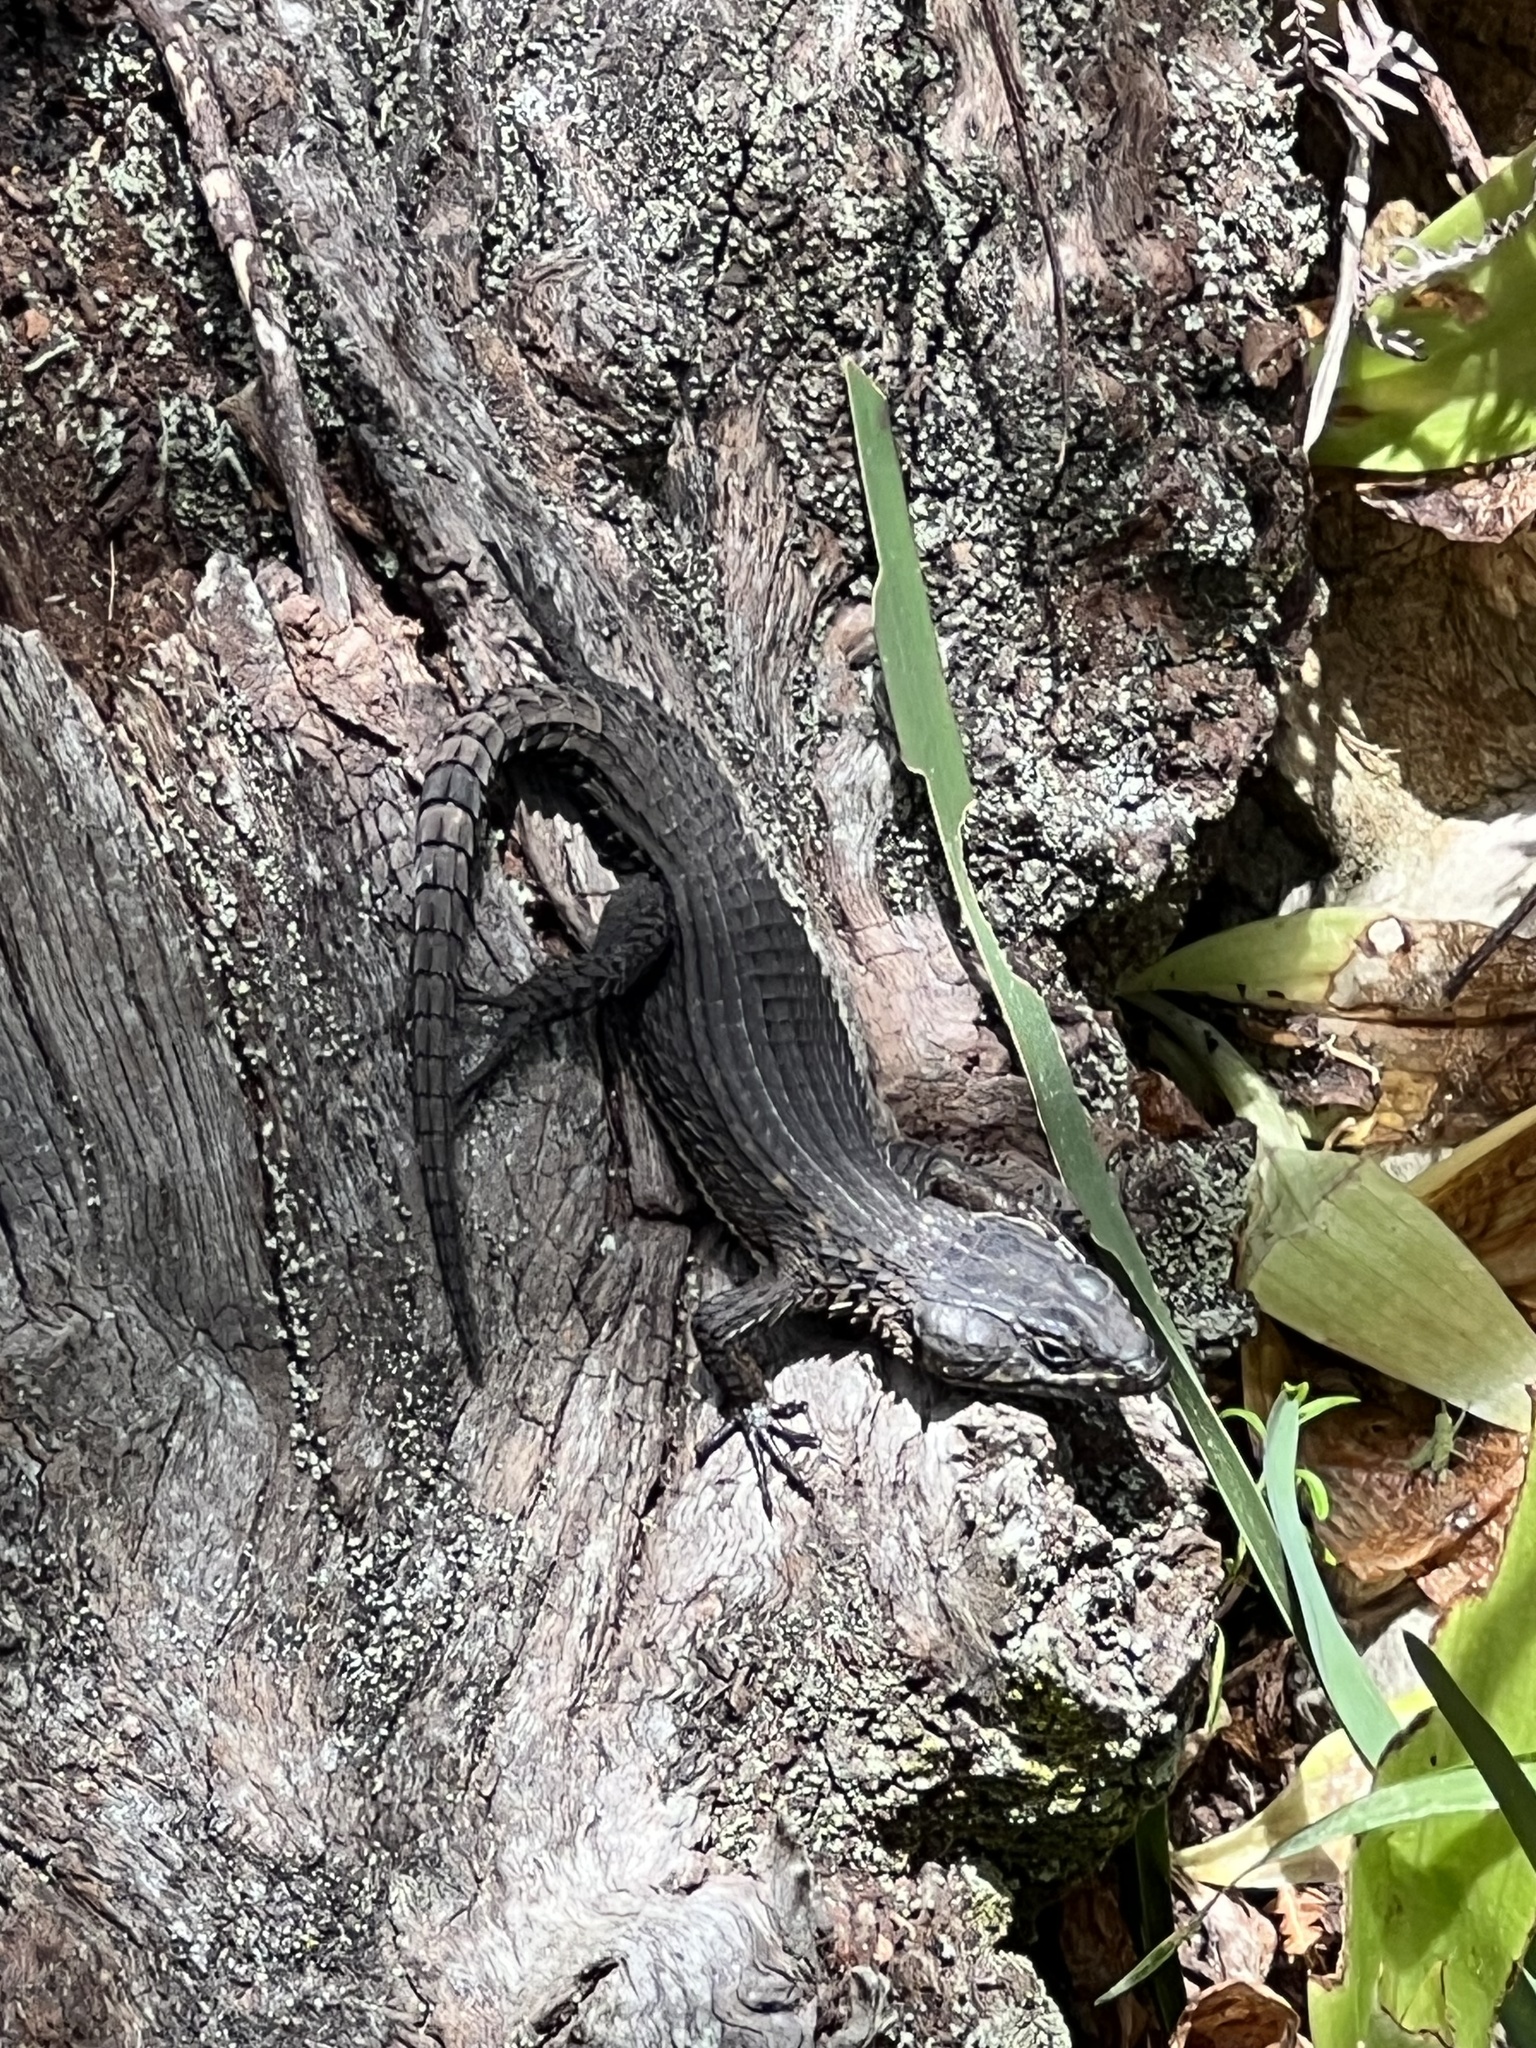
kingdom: Animalia
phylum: Chordata
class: Squamata
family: Cordylidae
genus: Cordylus
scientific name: Cordylus niger
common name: Black girdled lizard
